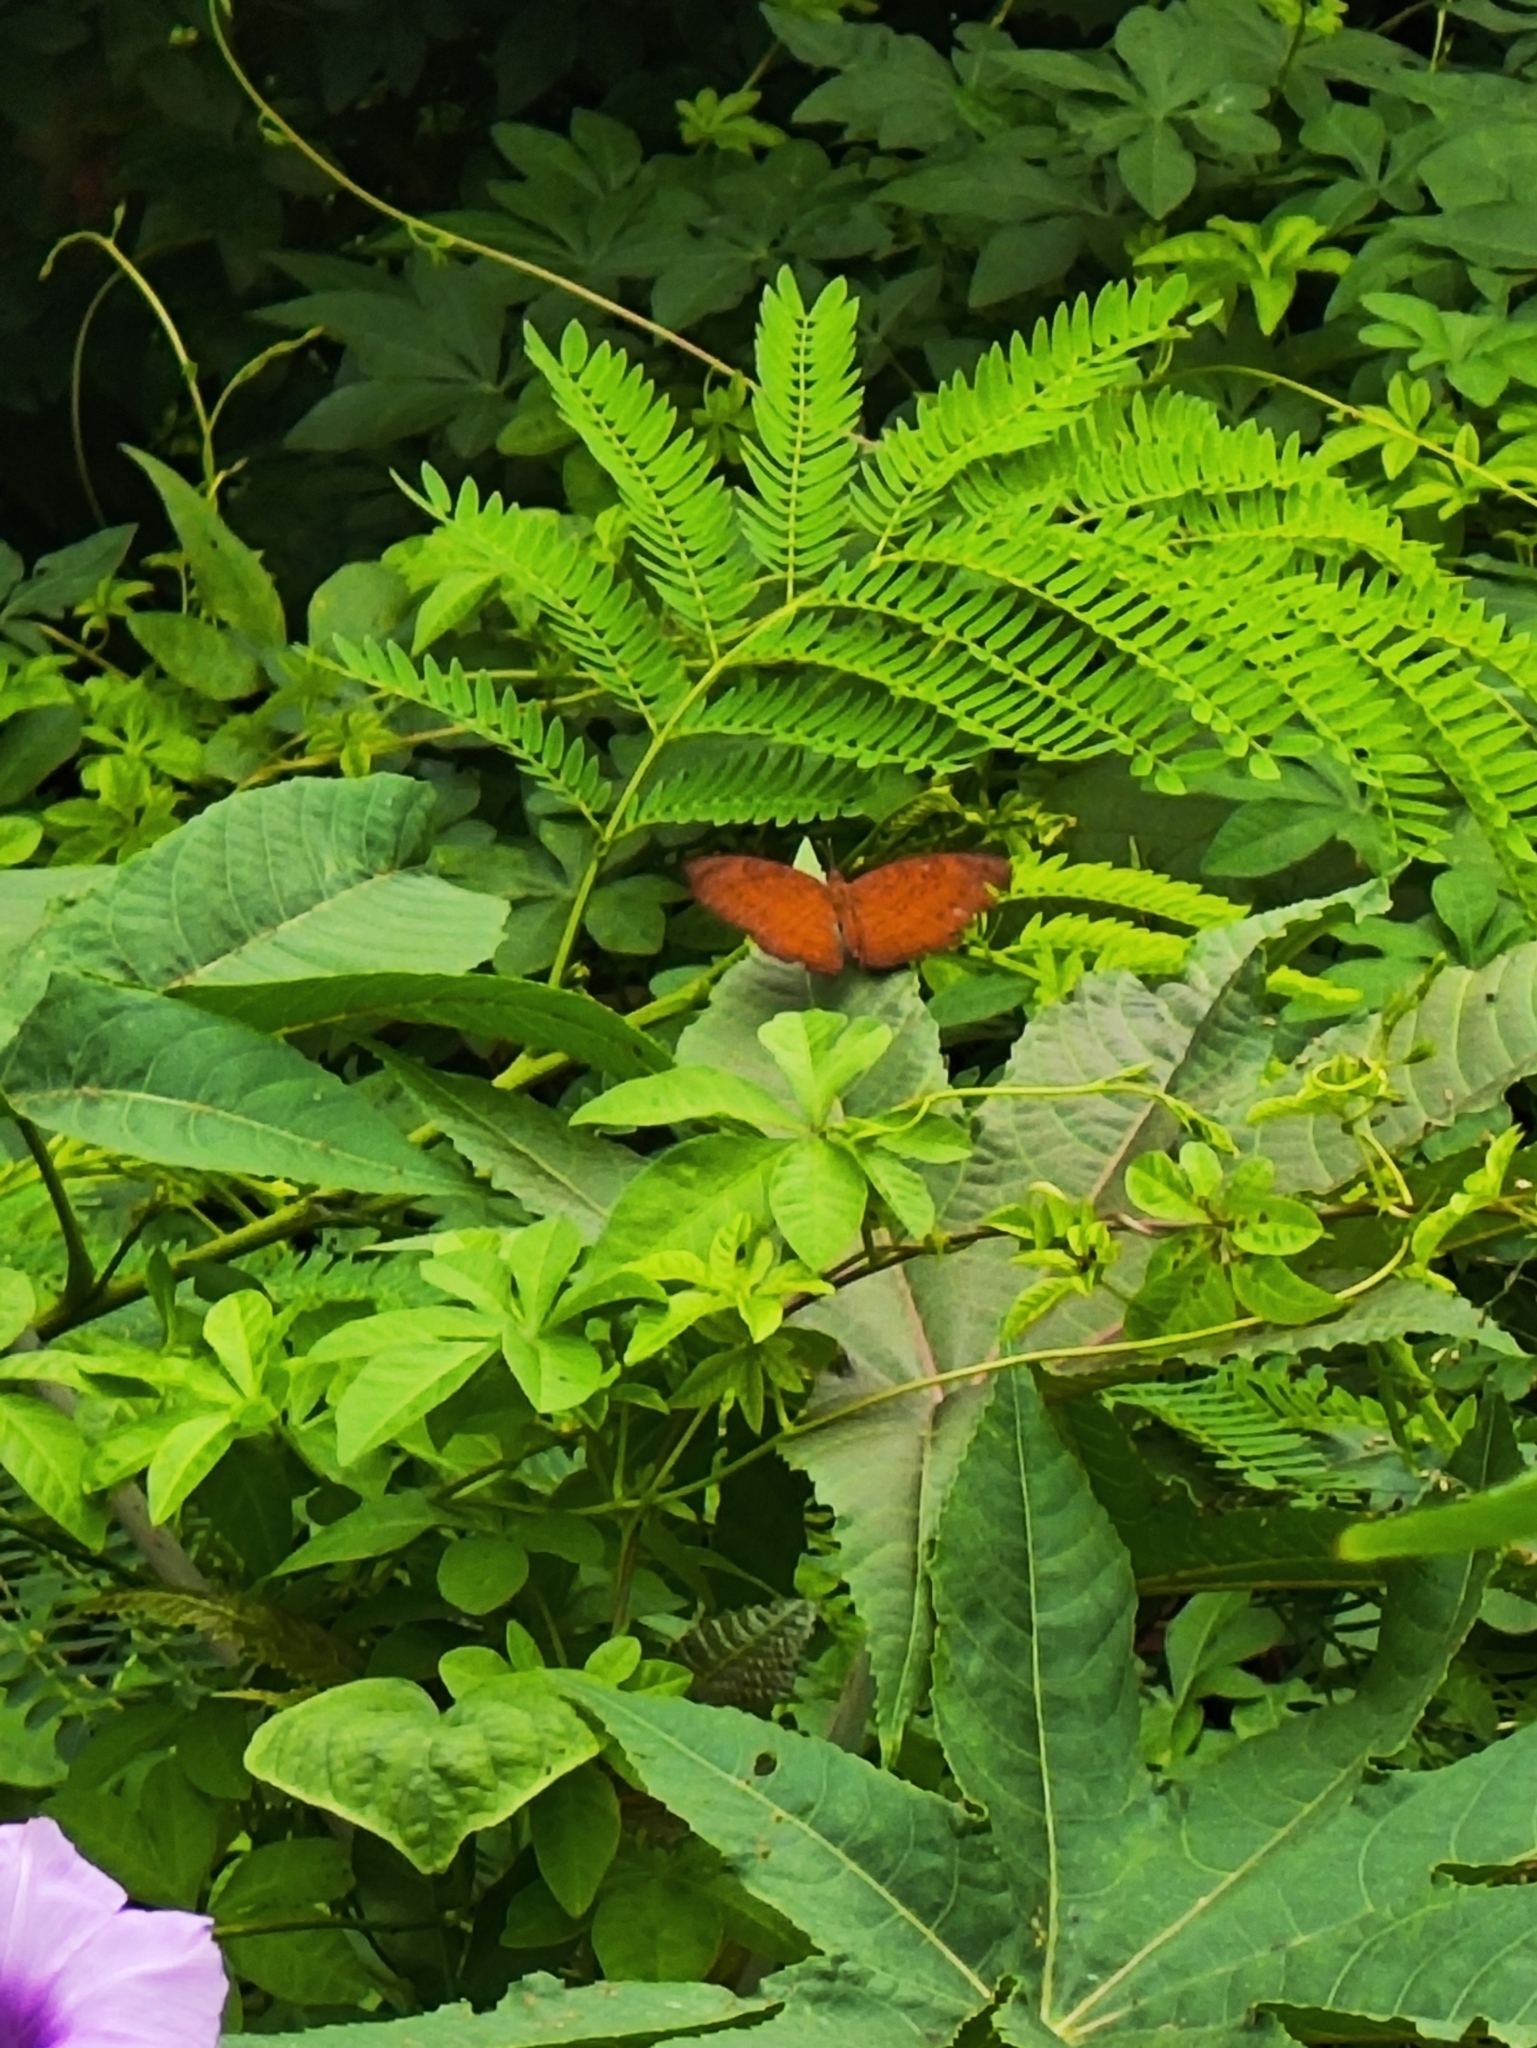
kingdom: Animalia
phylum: Arthropoda
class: Insecta
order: Lepidoptera
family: Nymphalidae
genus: Ariadne
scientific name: Ariadne merione
